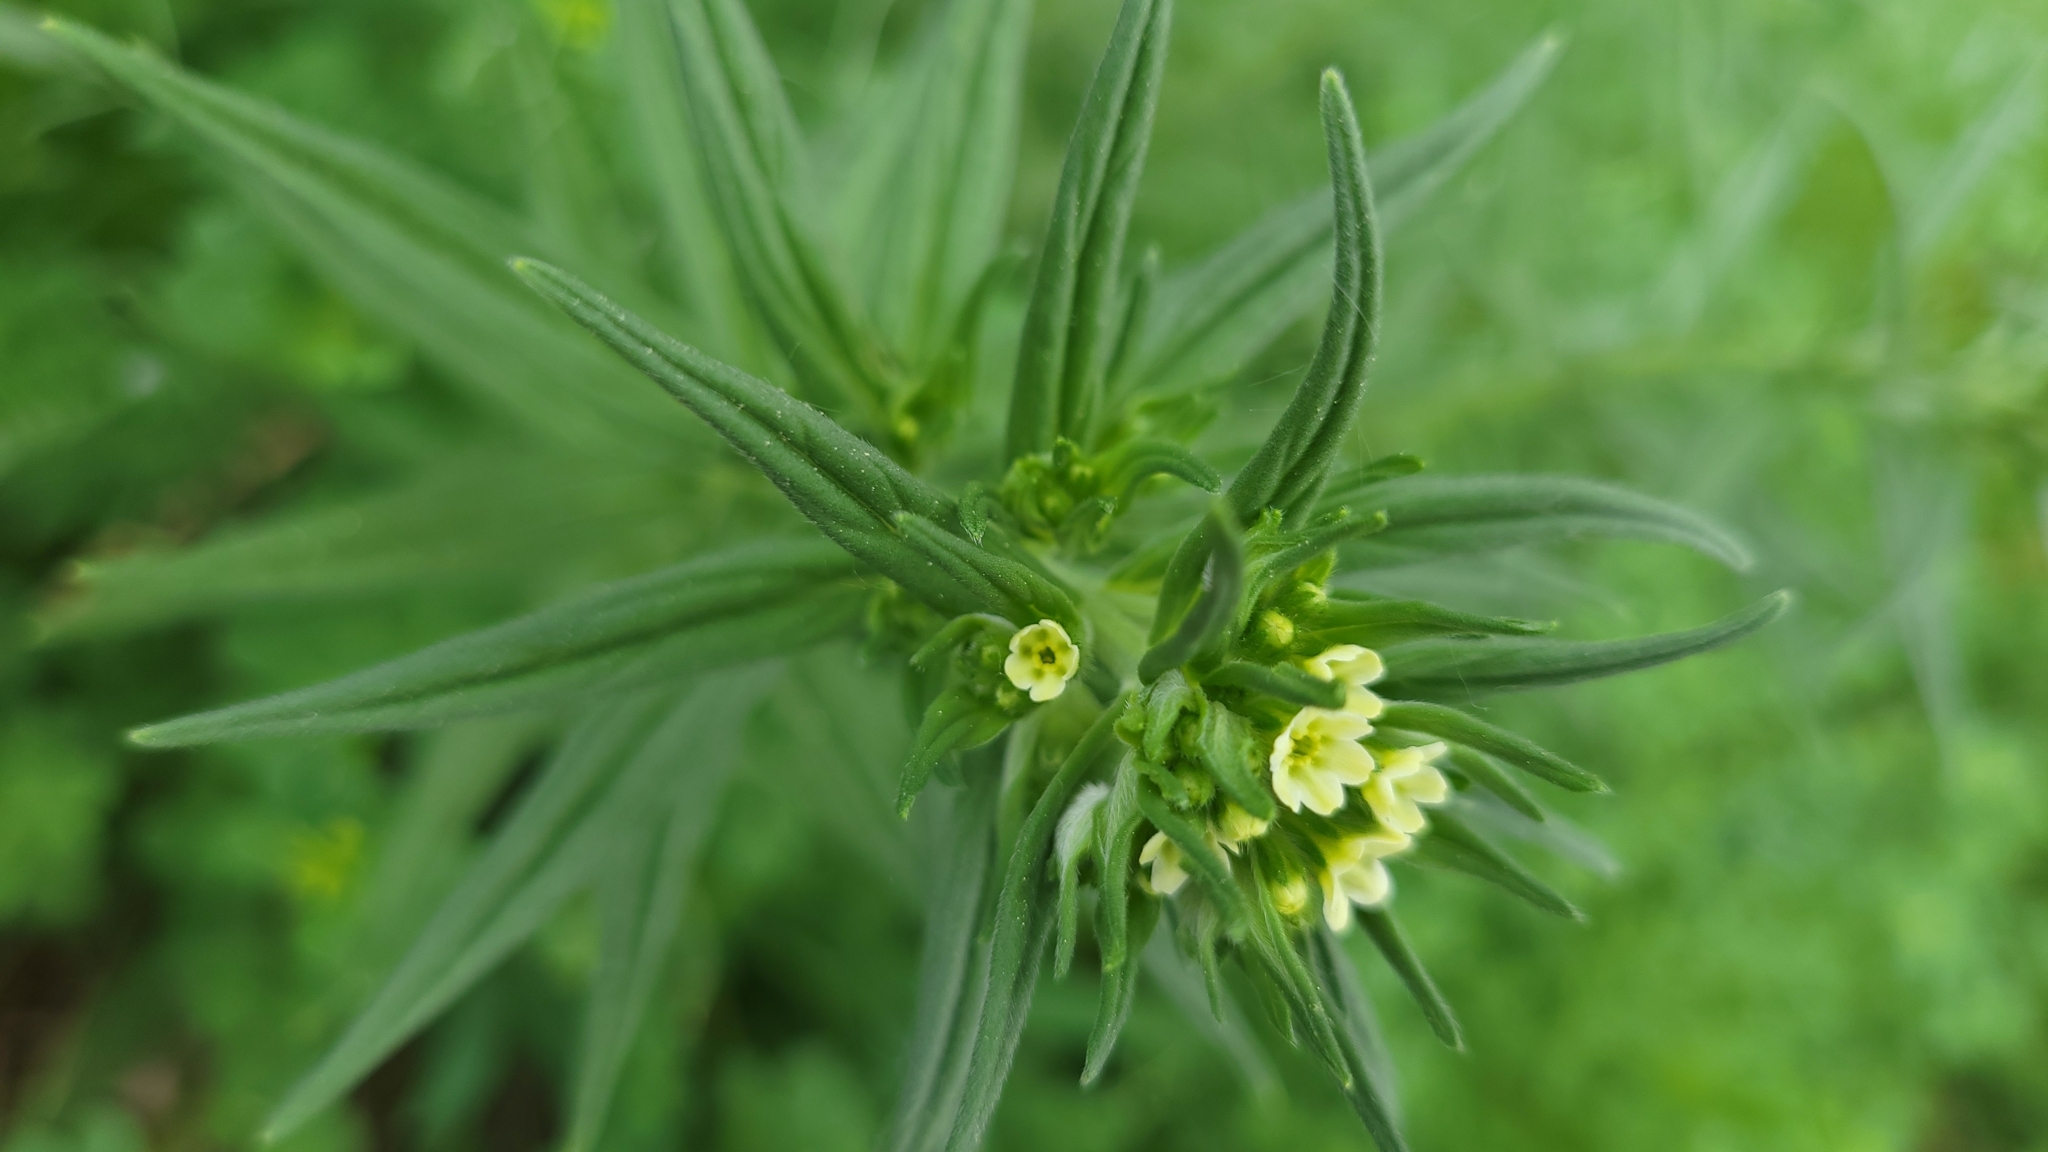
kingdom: Plantae
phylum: Tracheophyta
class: Magnoliopsida
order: Boraginales
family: Boraginaceae
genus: Lithospermum
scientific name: Lithospermum officinale
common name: Common gromwell
